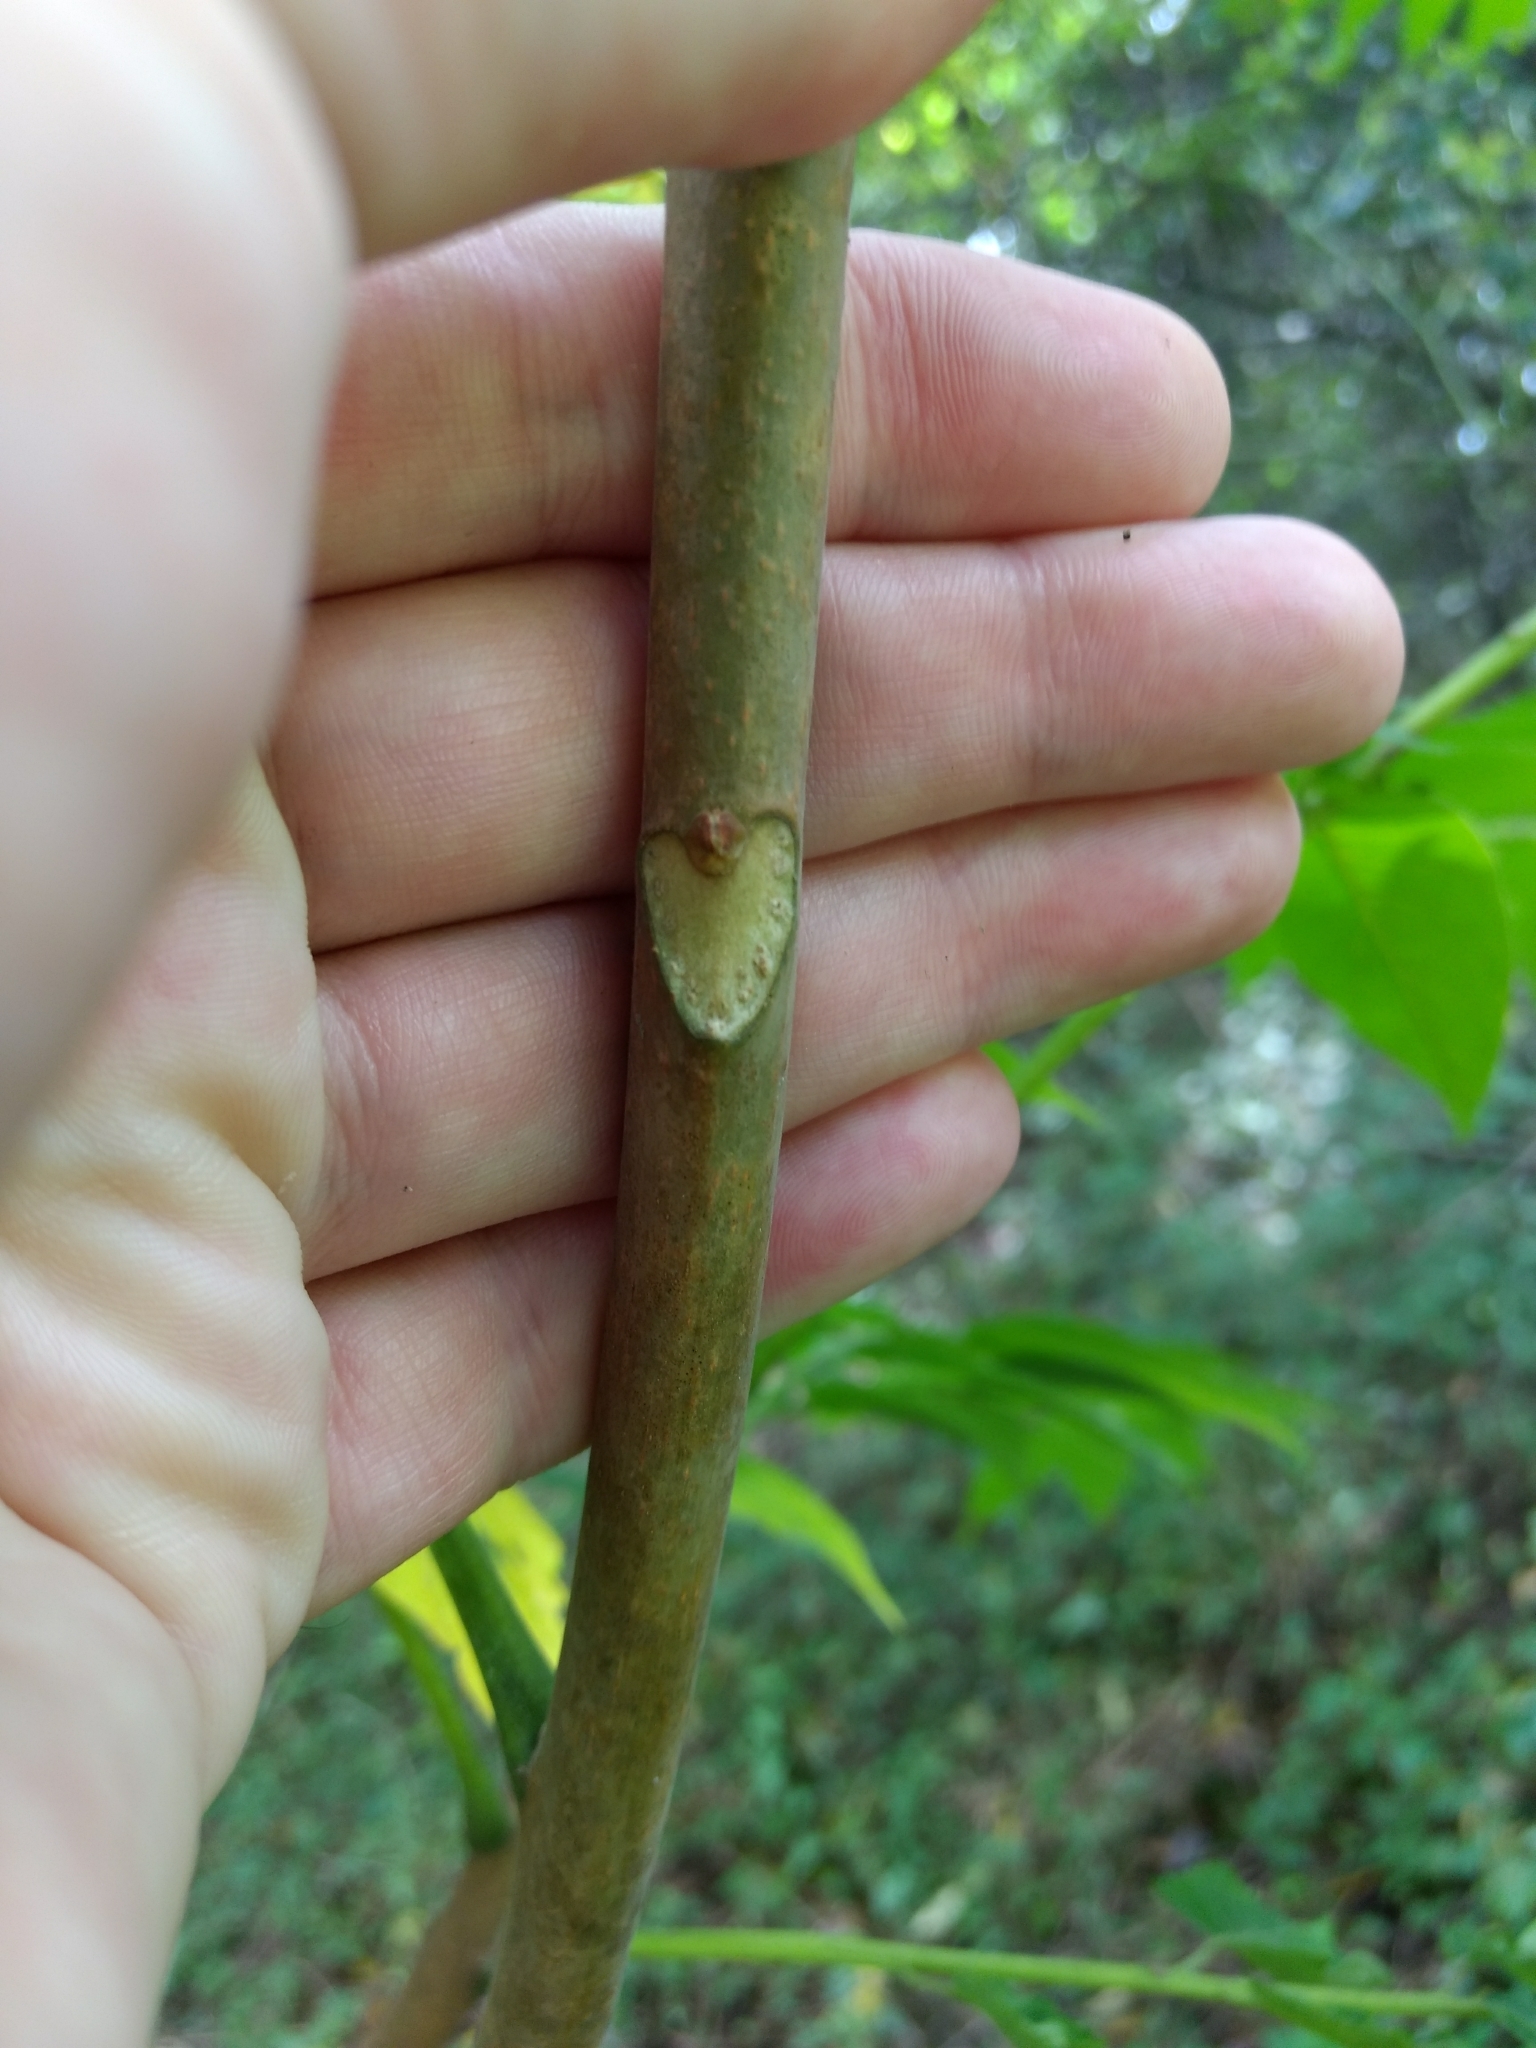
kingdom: Plantae
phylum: Tracheophyta
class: Magnoliopsida
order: Sapindales
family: Simaroubaceae
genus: Ailanthus
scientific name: Ailanthus altissima
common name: Tree-of-heaven
